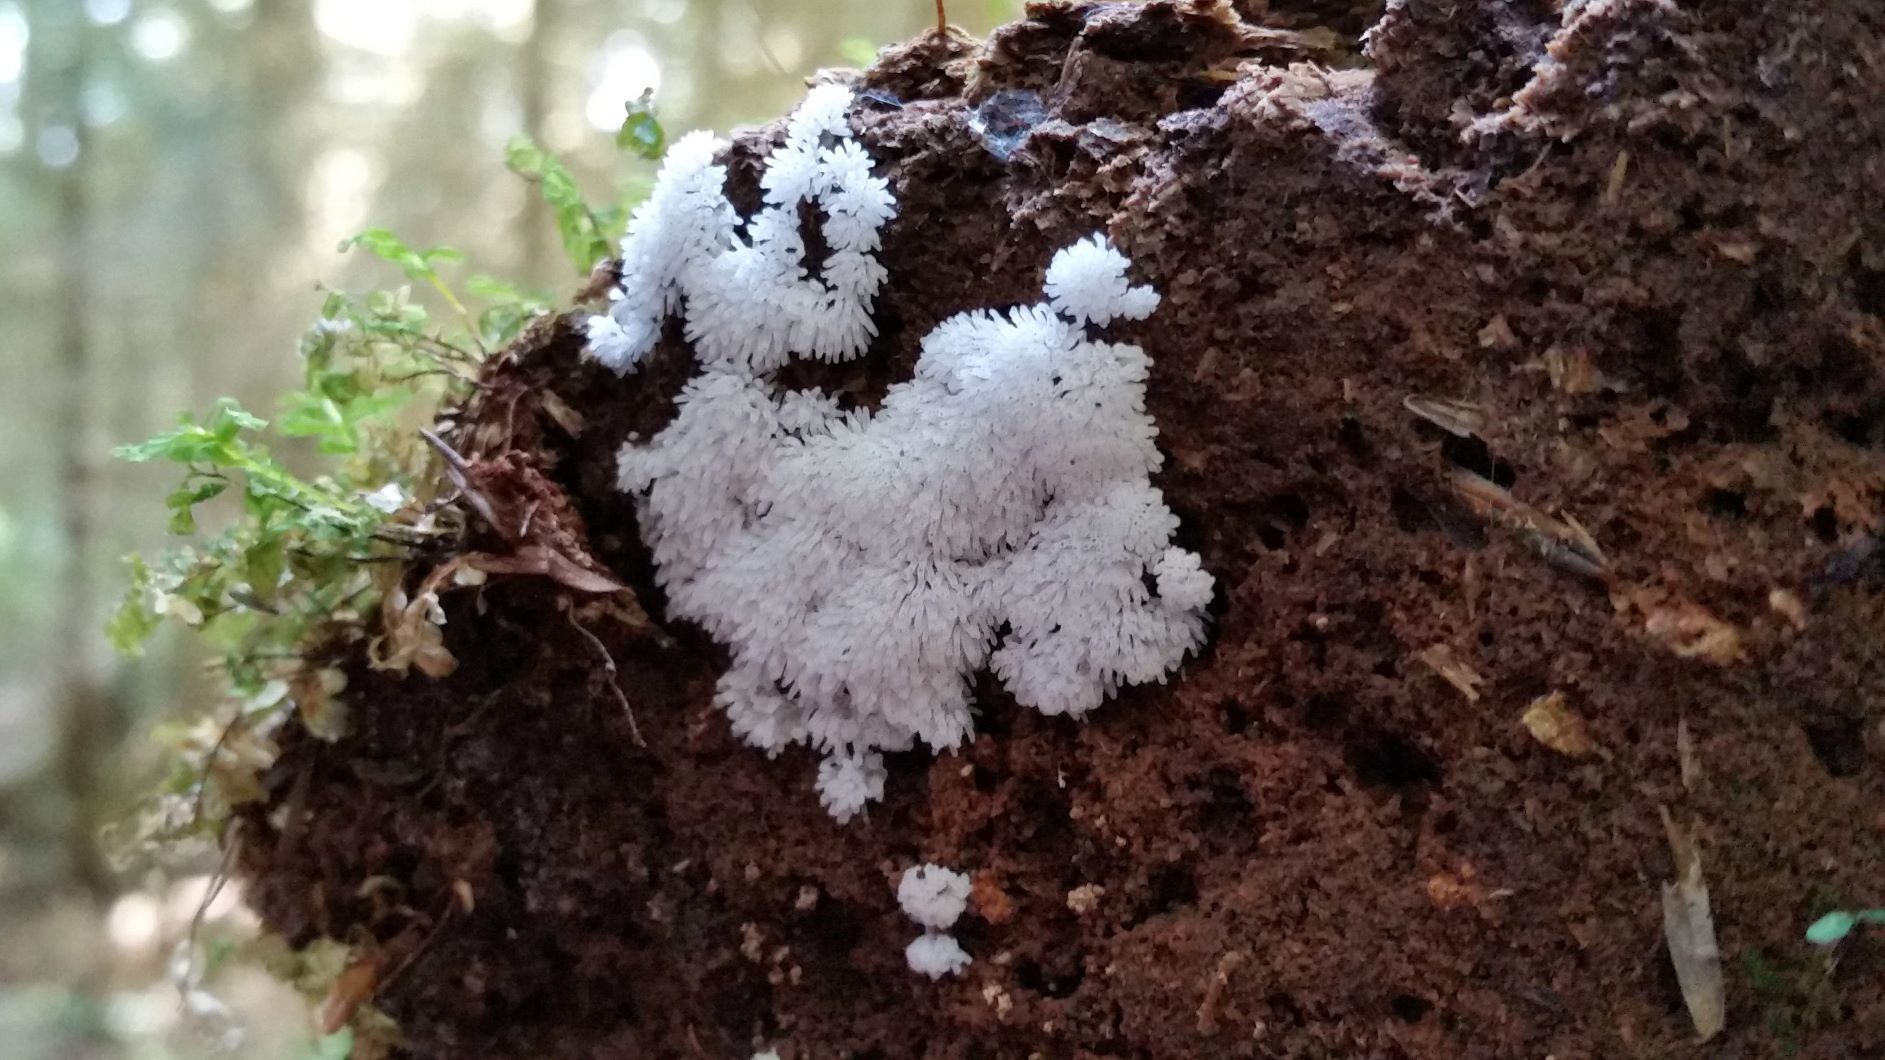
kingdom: Protozoa
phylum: Mycetozoa
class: Protosteliomycetes
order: Ceratiomyxales
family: Ceratiomyxaceae
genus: Ceratiomyxa
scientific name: Ceratiomyxa fruticulosa
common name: Honeycomb coral slime mold
